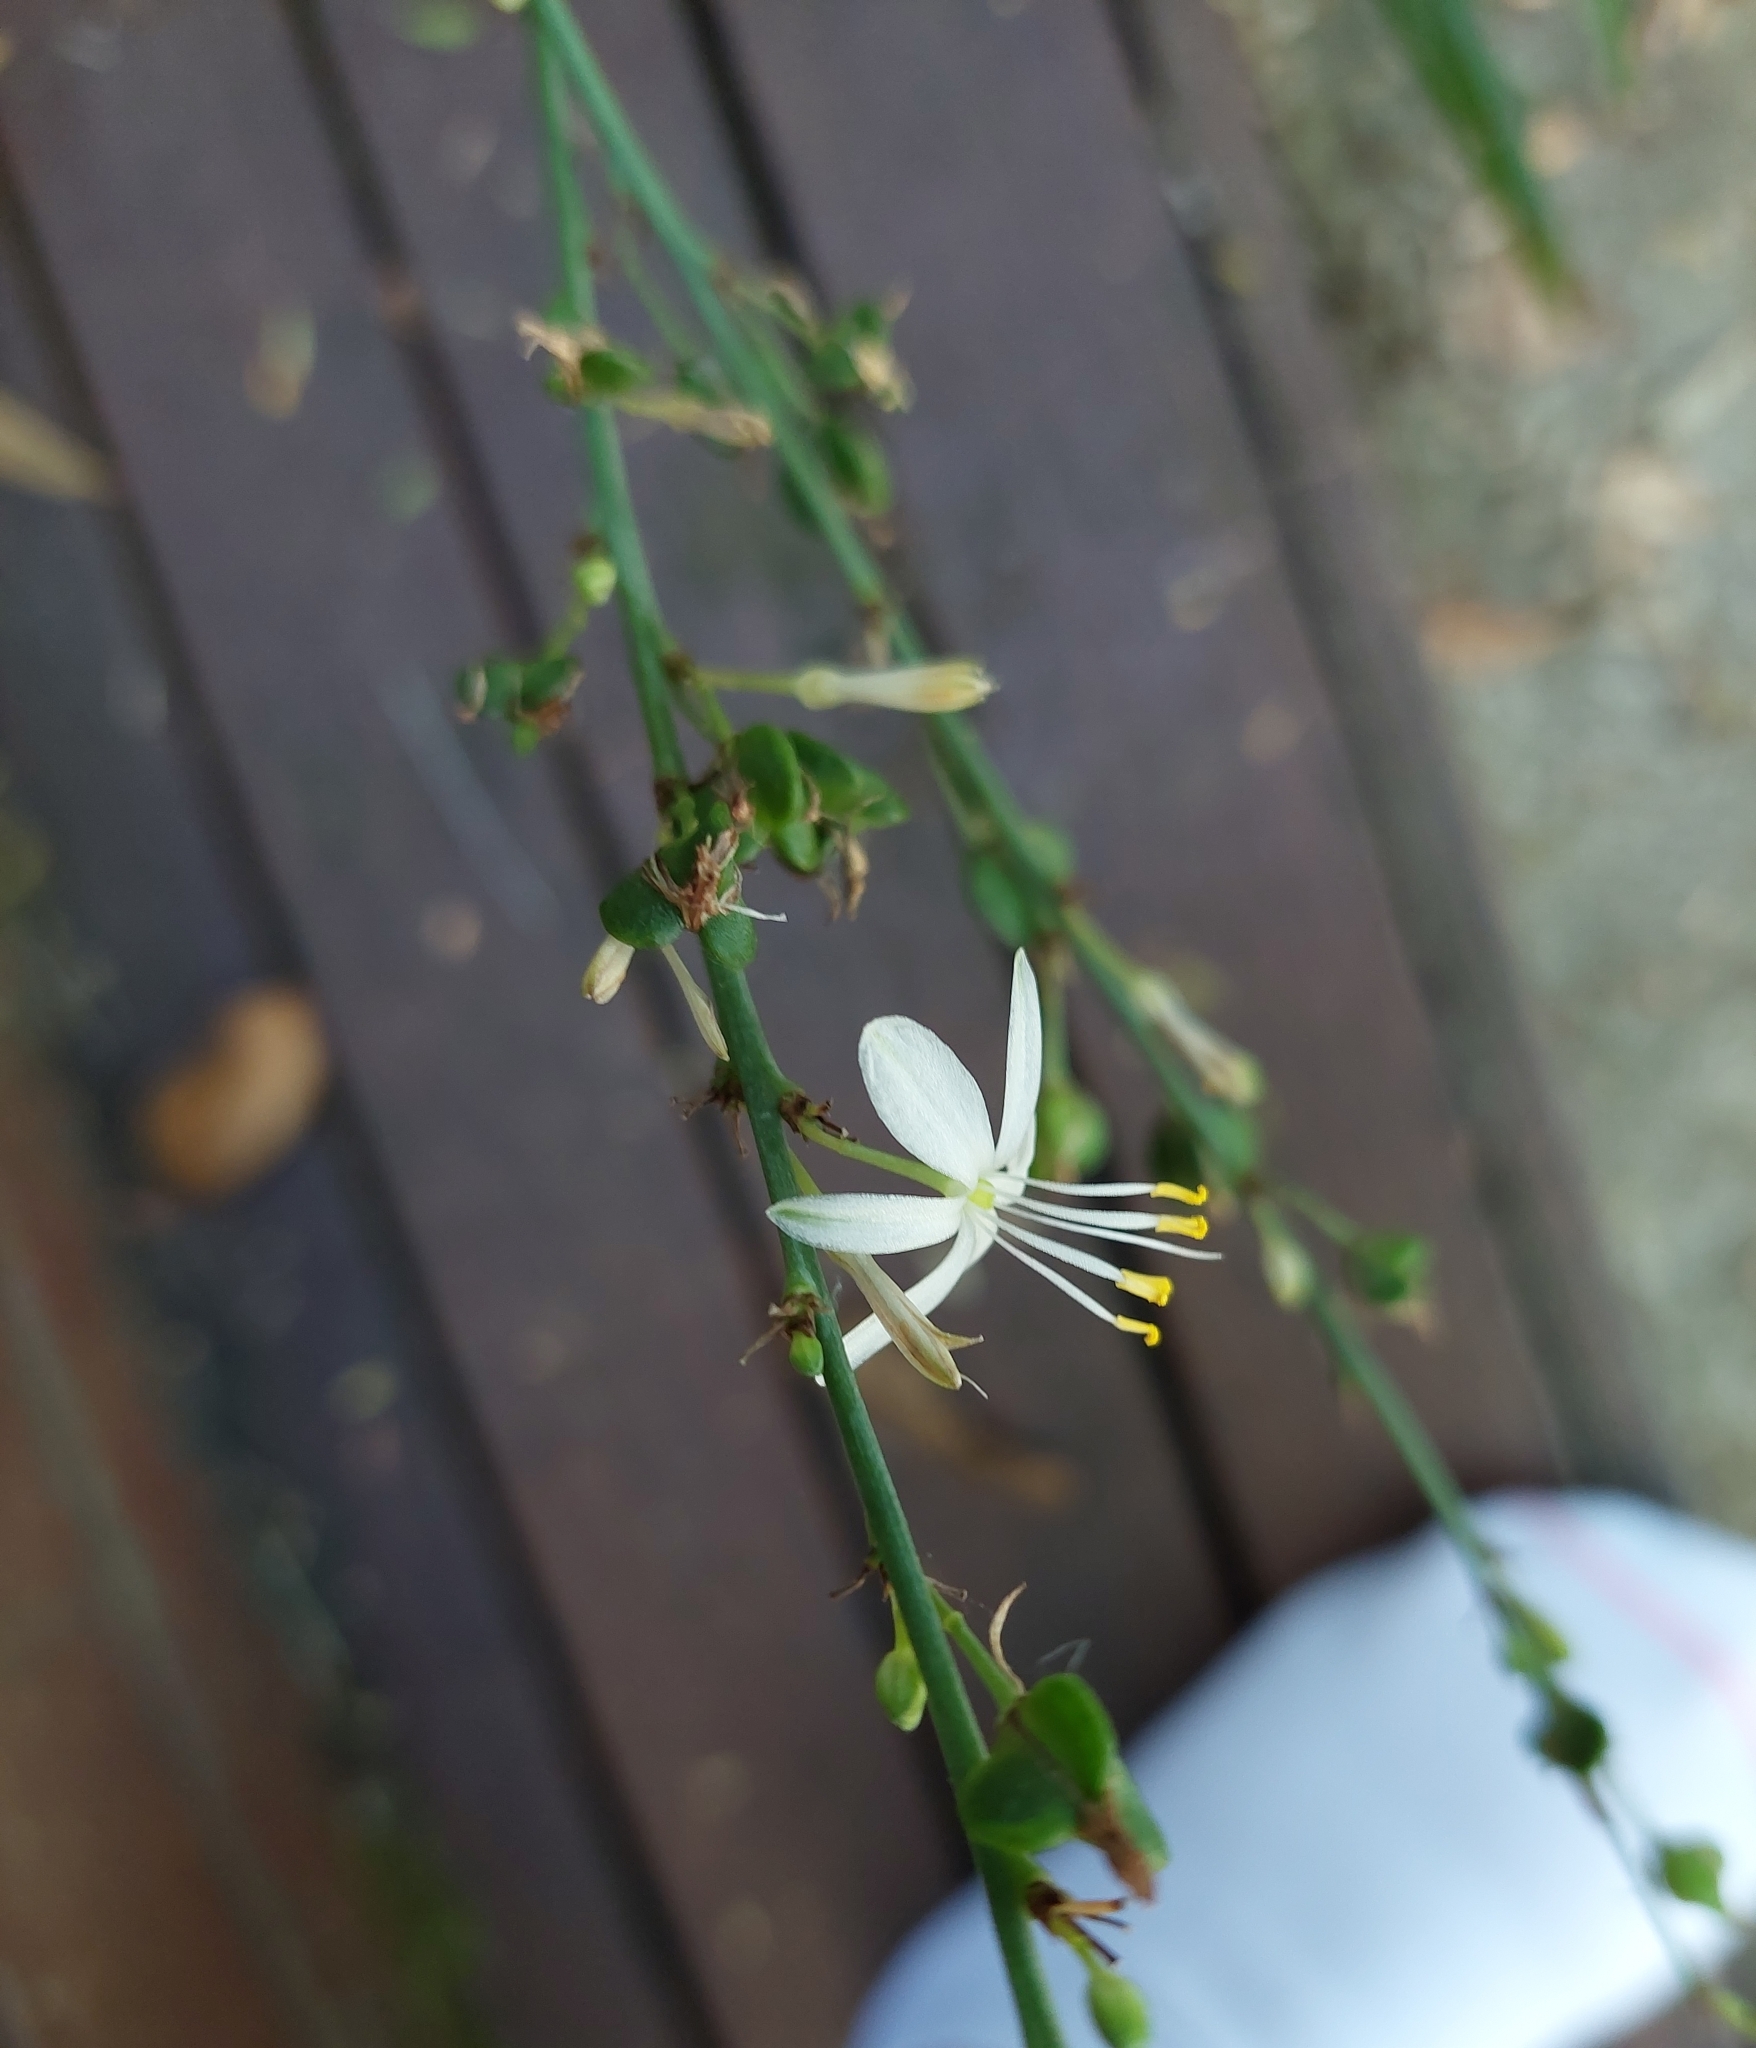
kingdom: Plantae
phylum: Tracheophyta
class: Liliopsida
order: Asparagales
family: Asparagaceae
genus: Chlorophytum
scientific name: Chlorophytum comosum
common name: Spider plant
